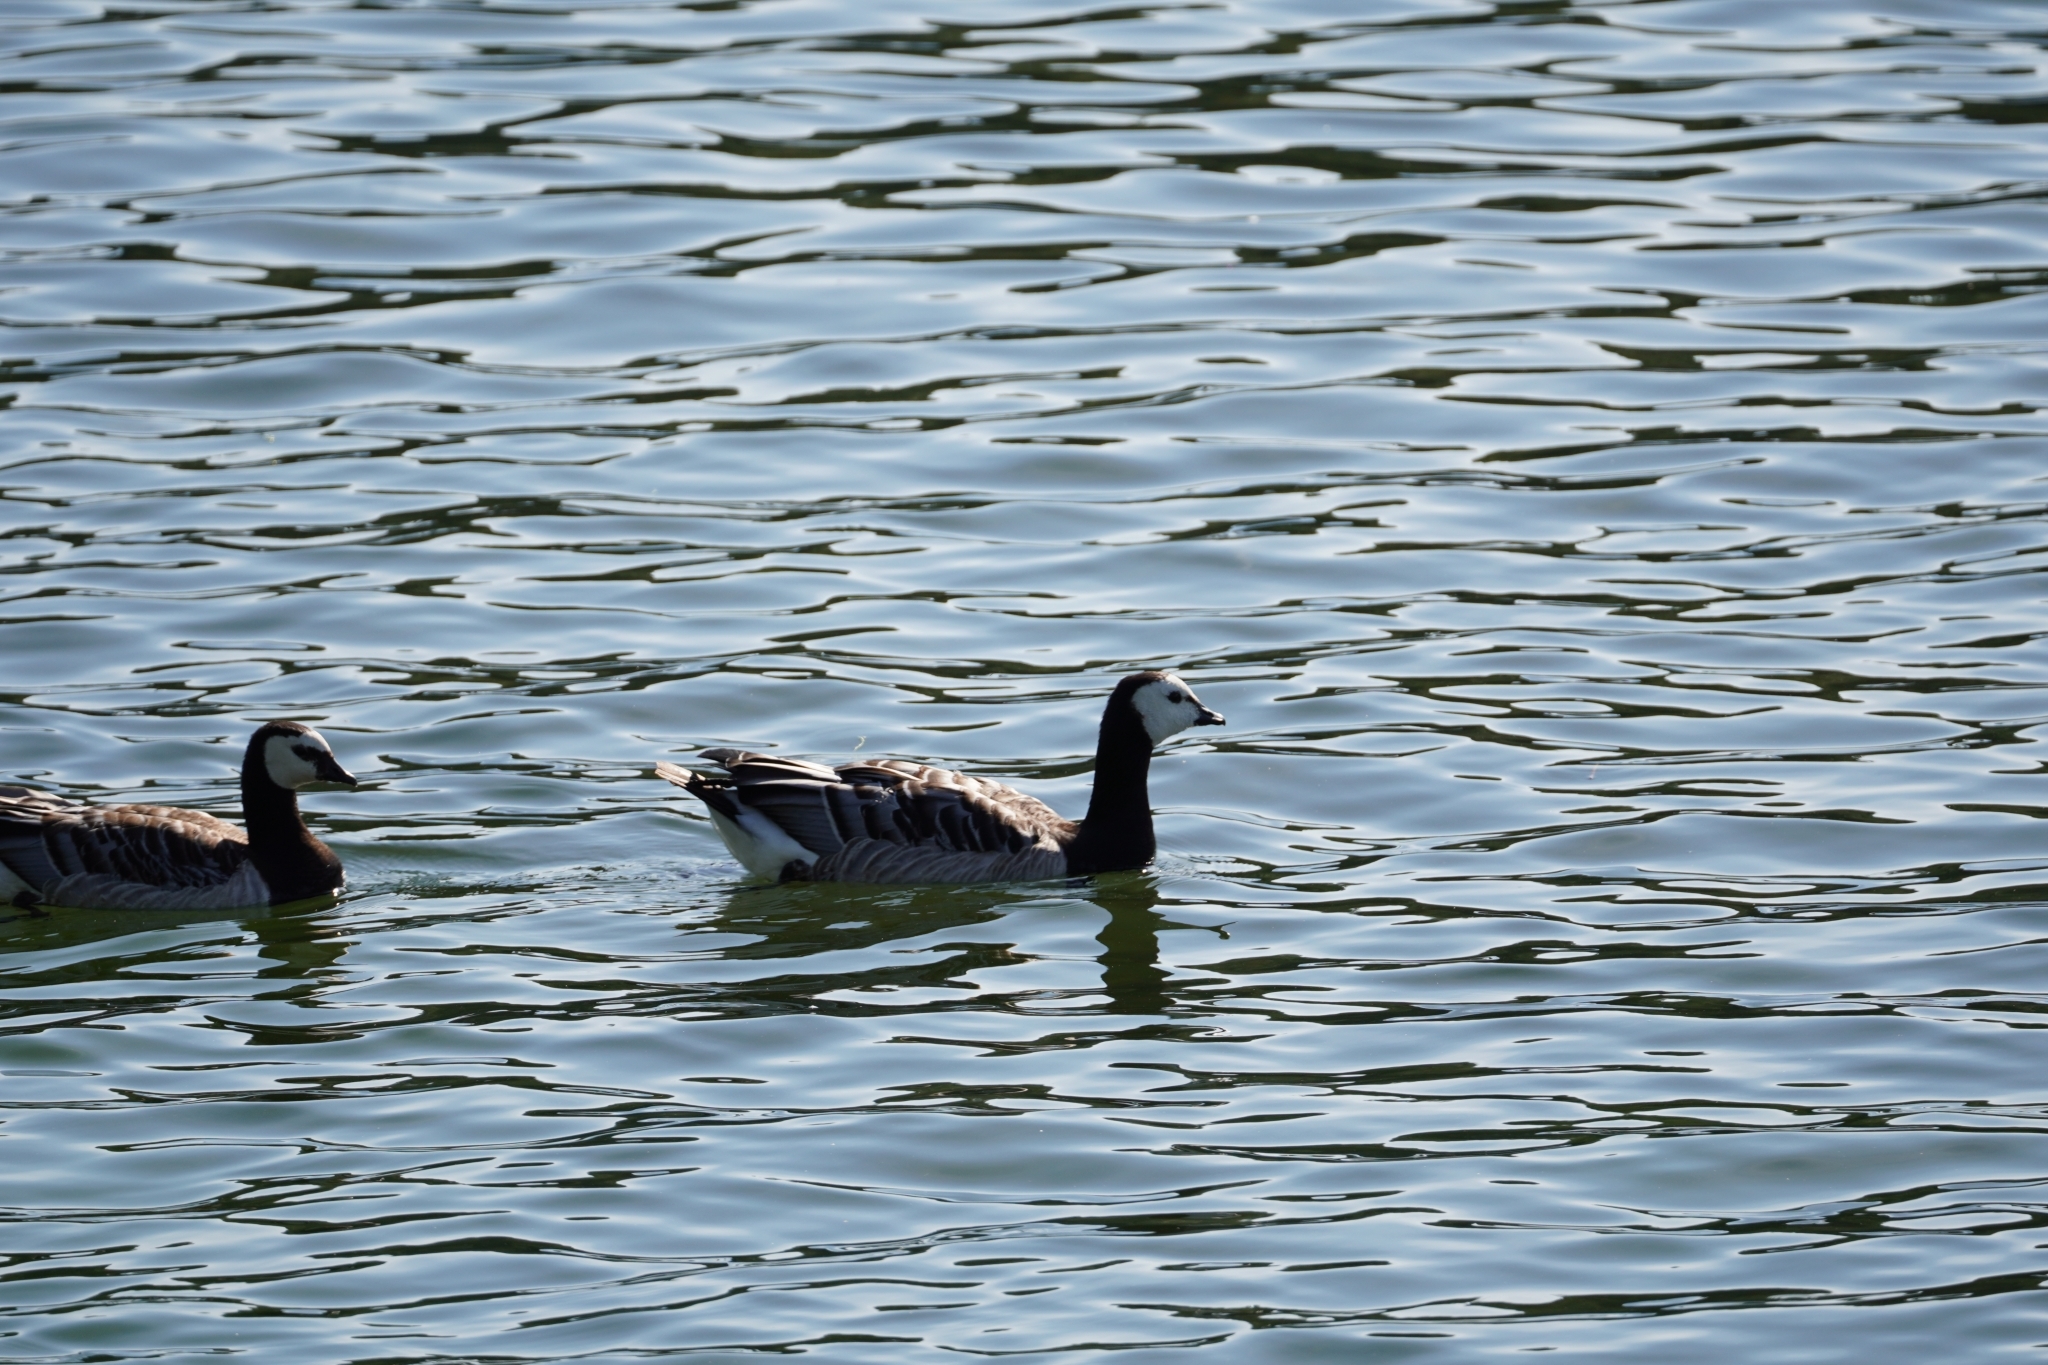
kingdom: Animalia
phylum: Chordata
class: Aves
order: Anseriformes
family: Anatidae
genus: Branta
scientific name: Branta leucopsis
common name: Barnacle goose
